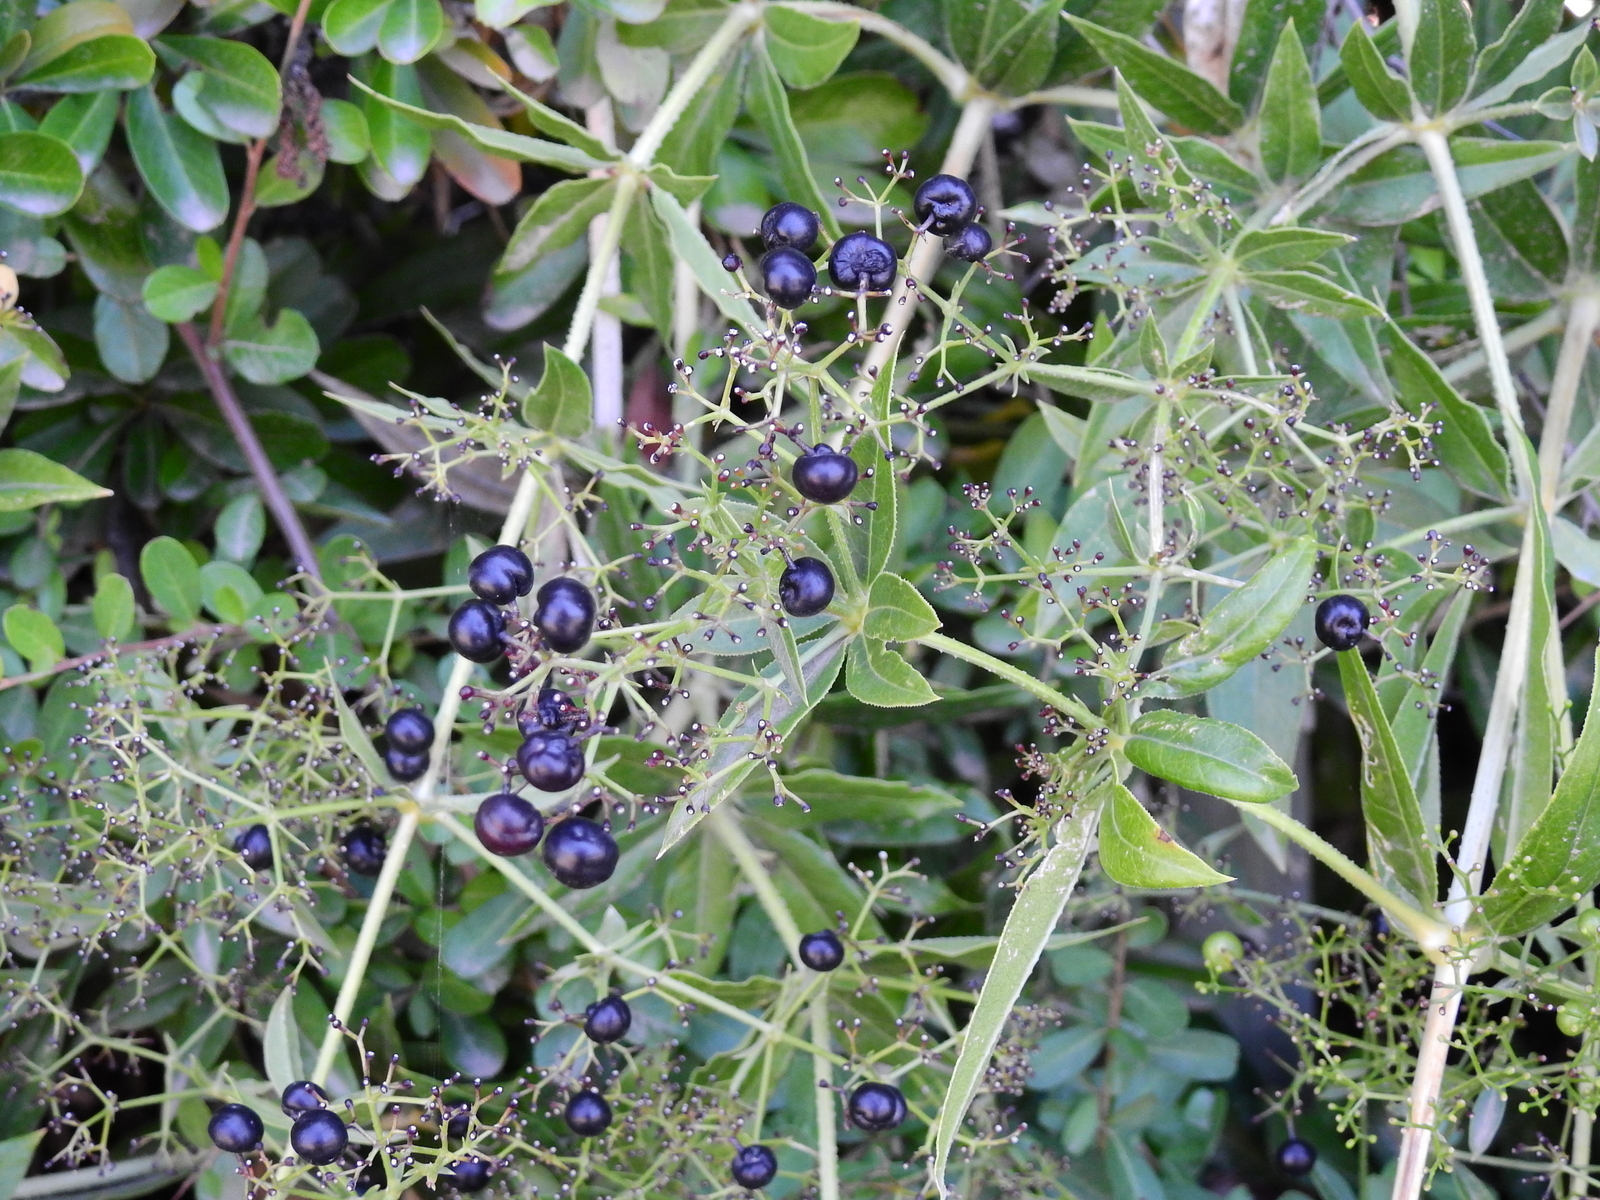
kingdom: Plantae
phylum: Tracheophyta
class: Magnoliopsida
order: Gentianales
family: Rubiaceae
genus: Rubia
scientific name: Rubia tinctorum
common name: Dyer's madder
